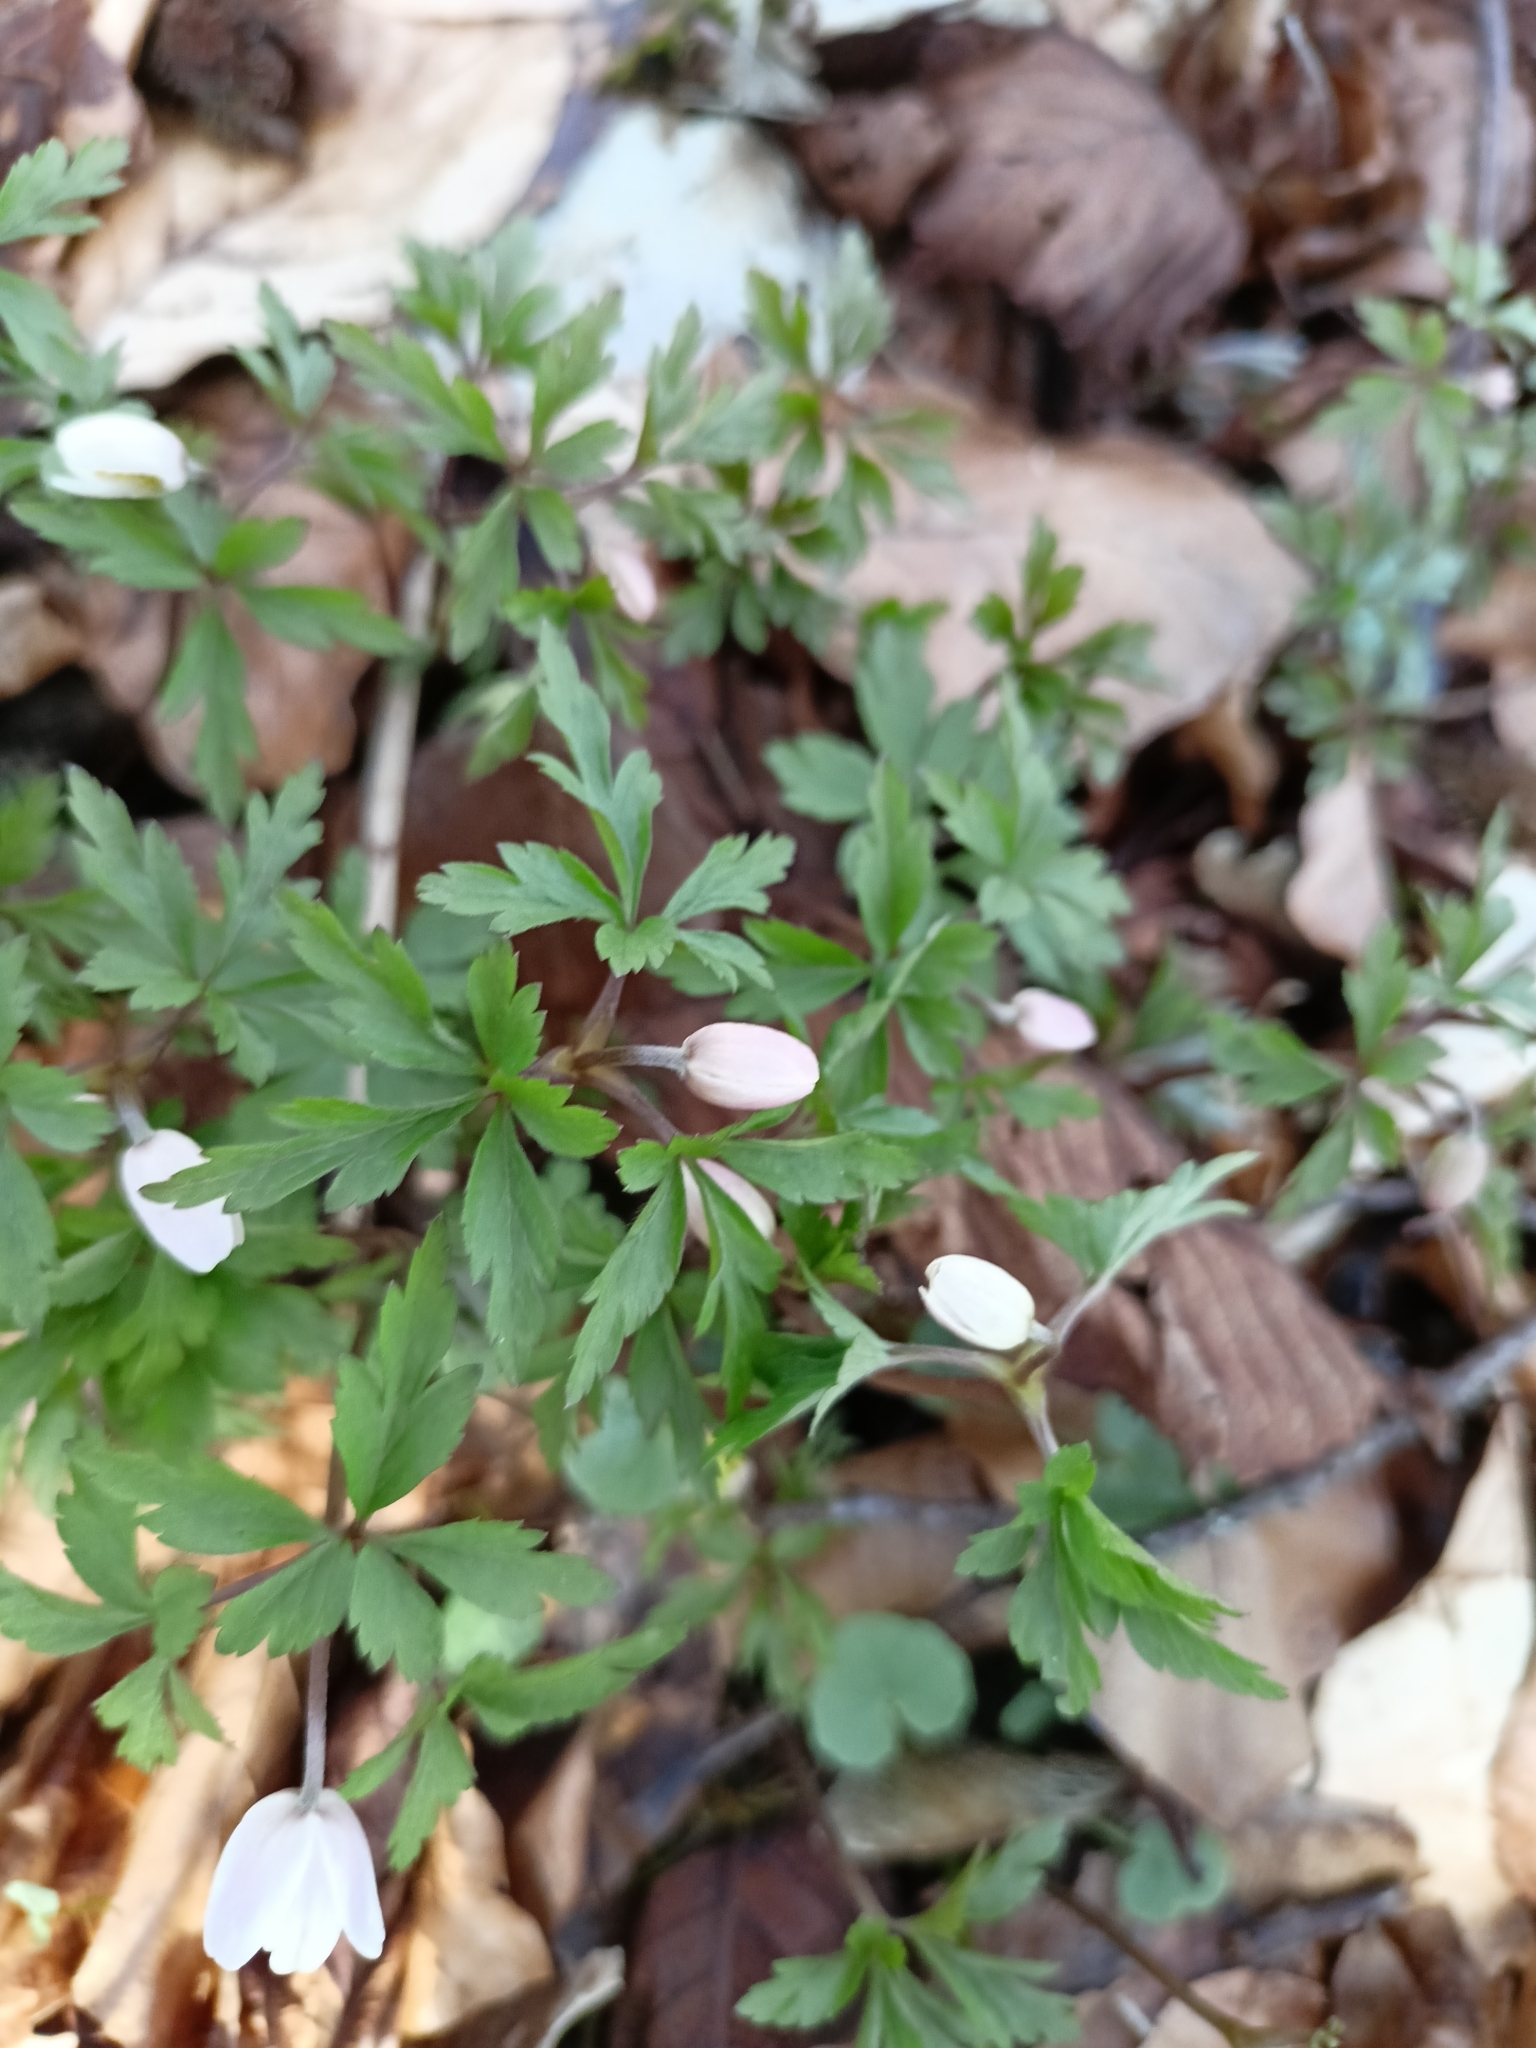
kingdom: Plantae
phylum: Tracheophyta
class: Magnoliopsida
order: Ranunculales
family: Ranunculaceae
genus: Anemone
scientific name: Anemone nemorosa
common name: Wood anemone
